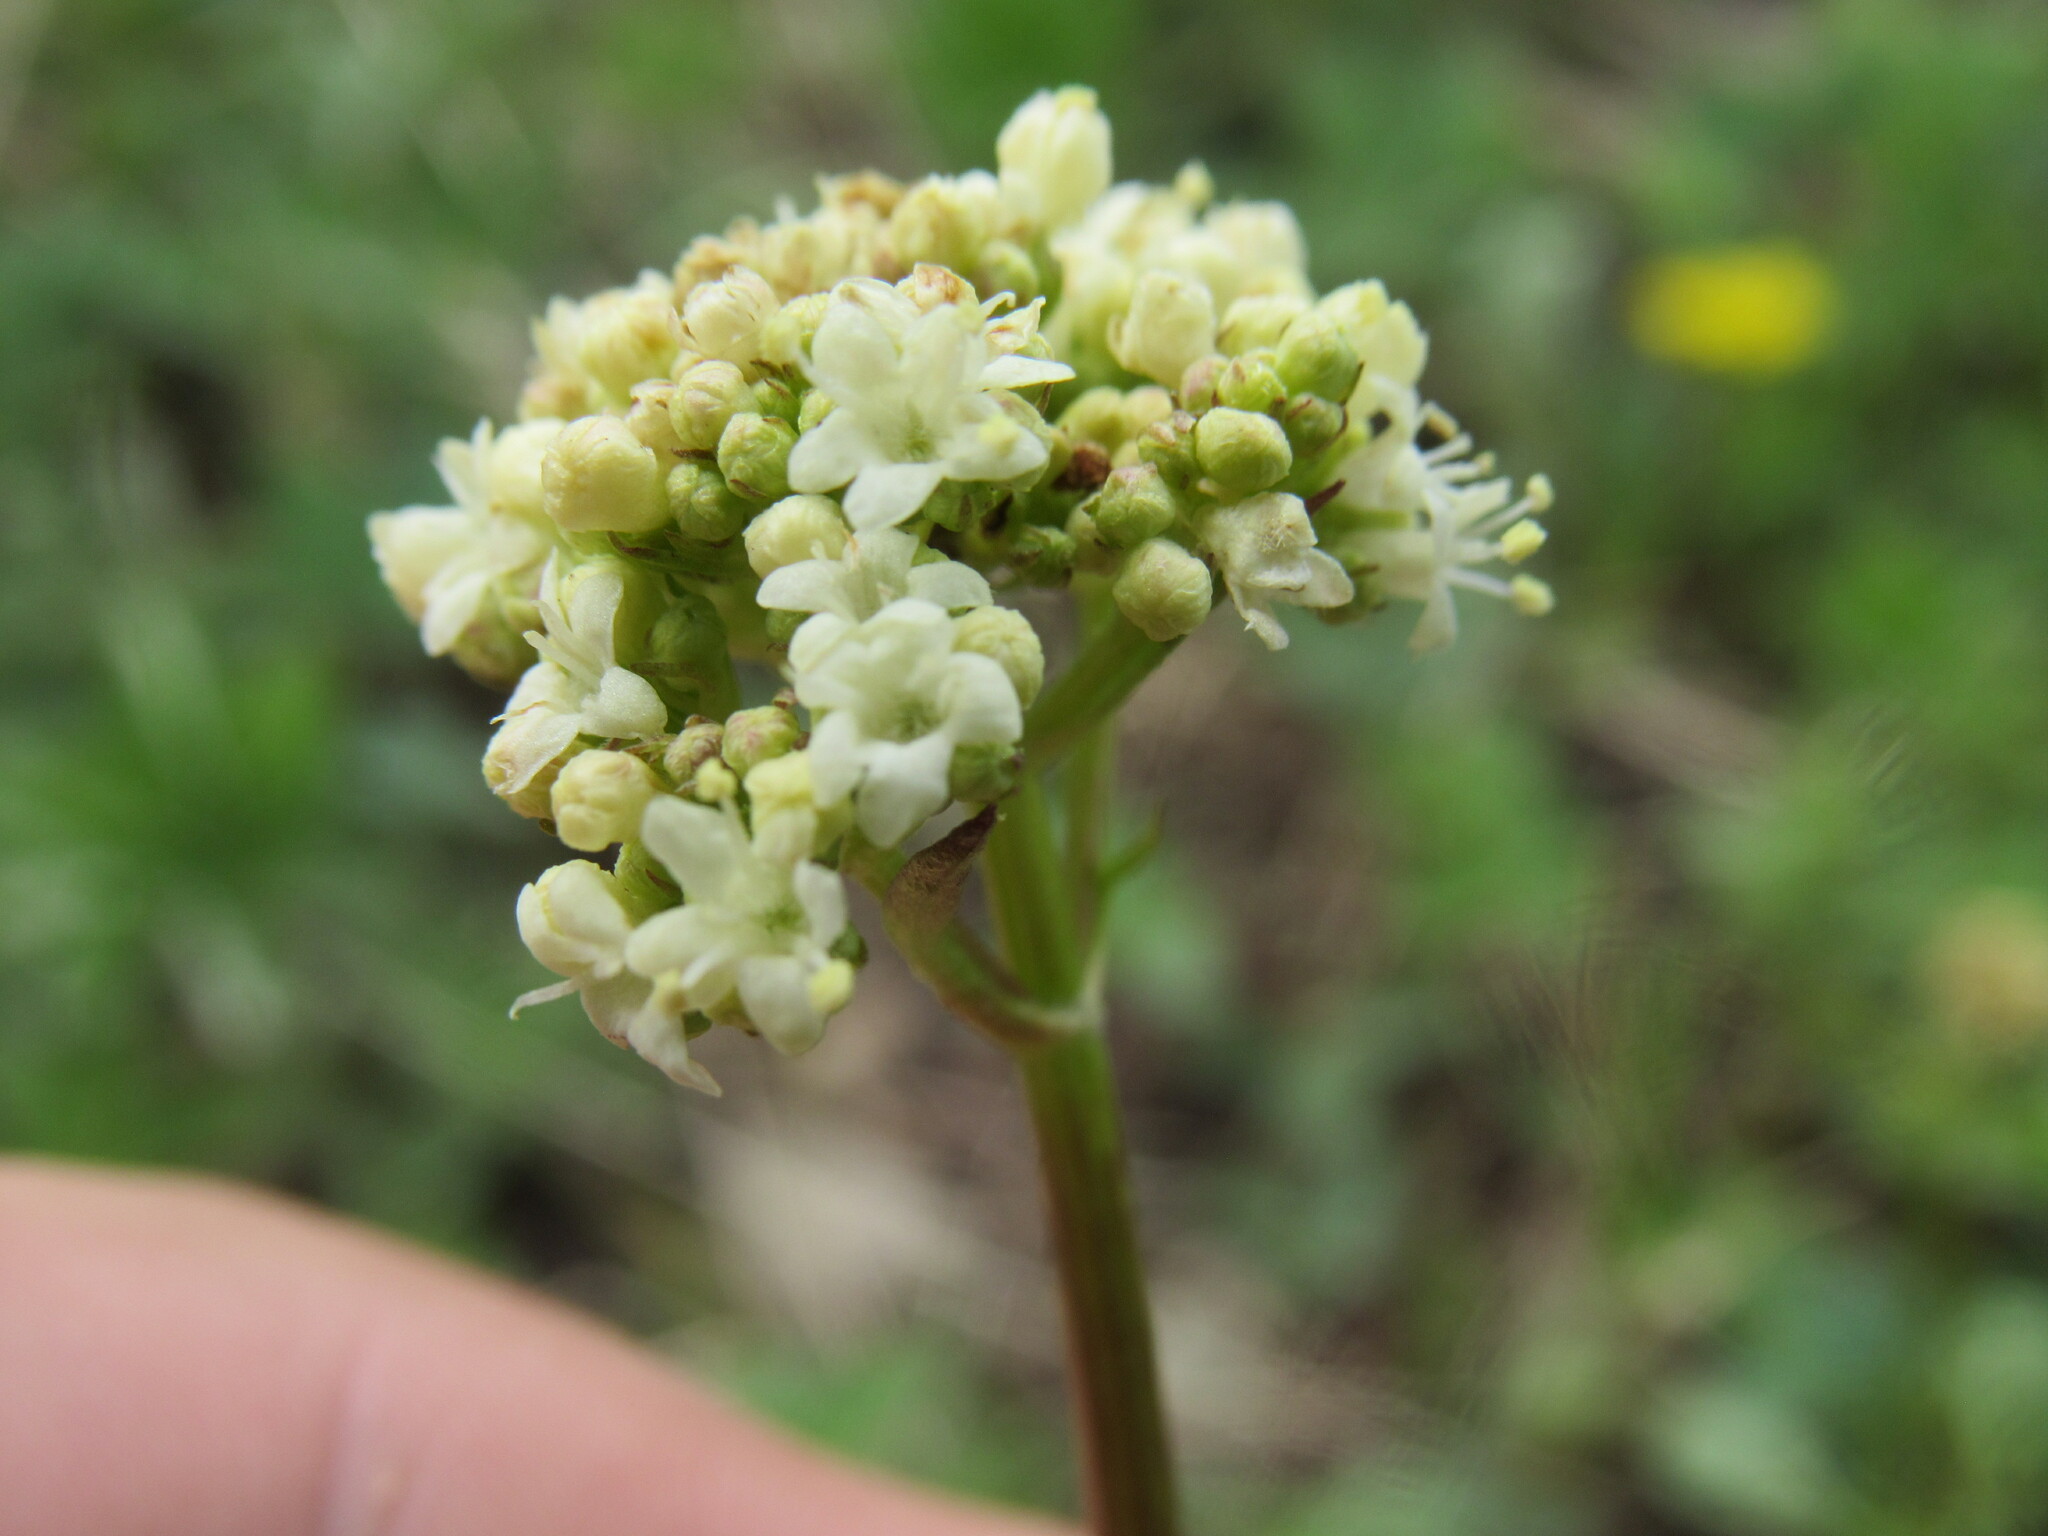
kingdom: Plantae
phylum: Tracheophyta
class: Magnoliopsida
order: Dipsacales
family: Caprifoliaceae
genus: Valeriana
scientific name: Valeriana occidentalis
